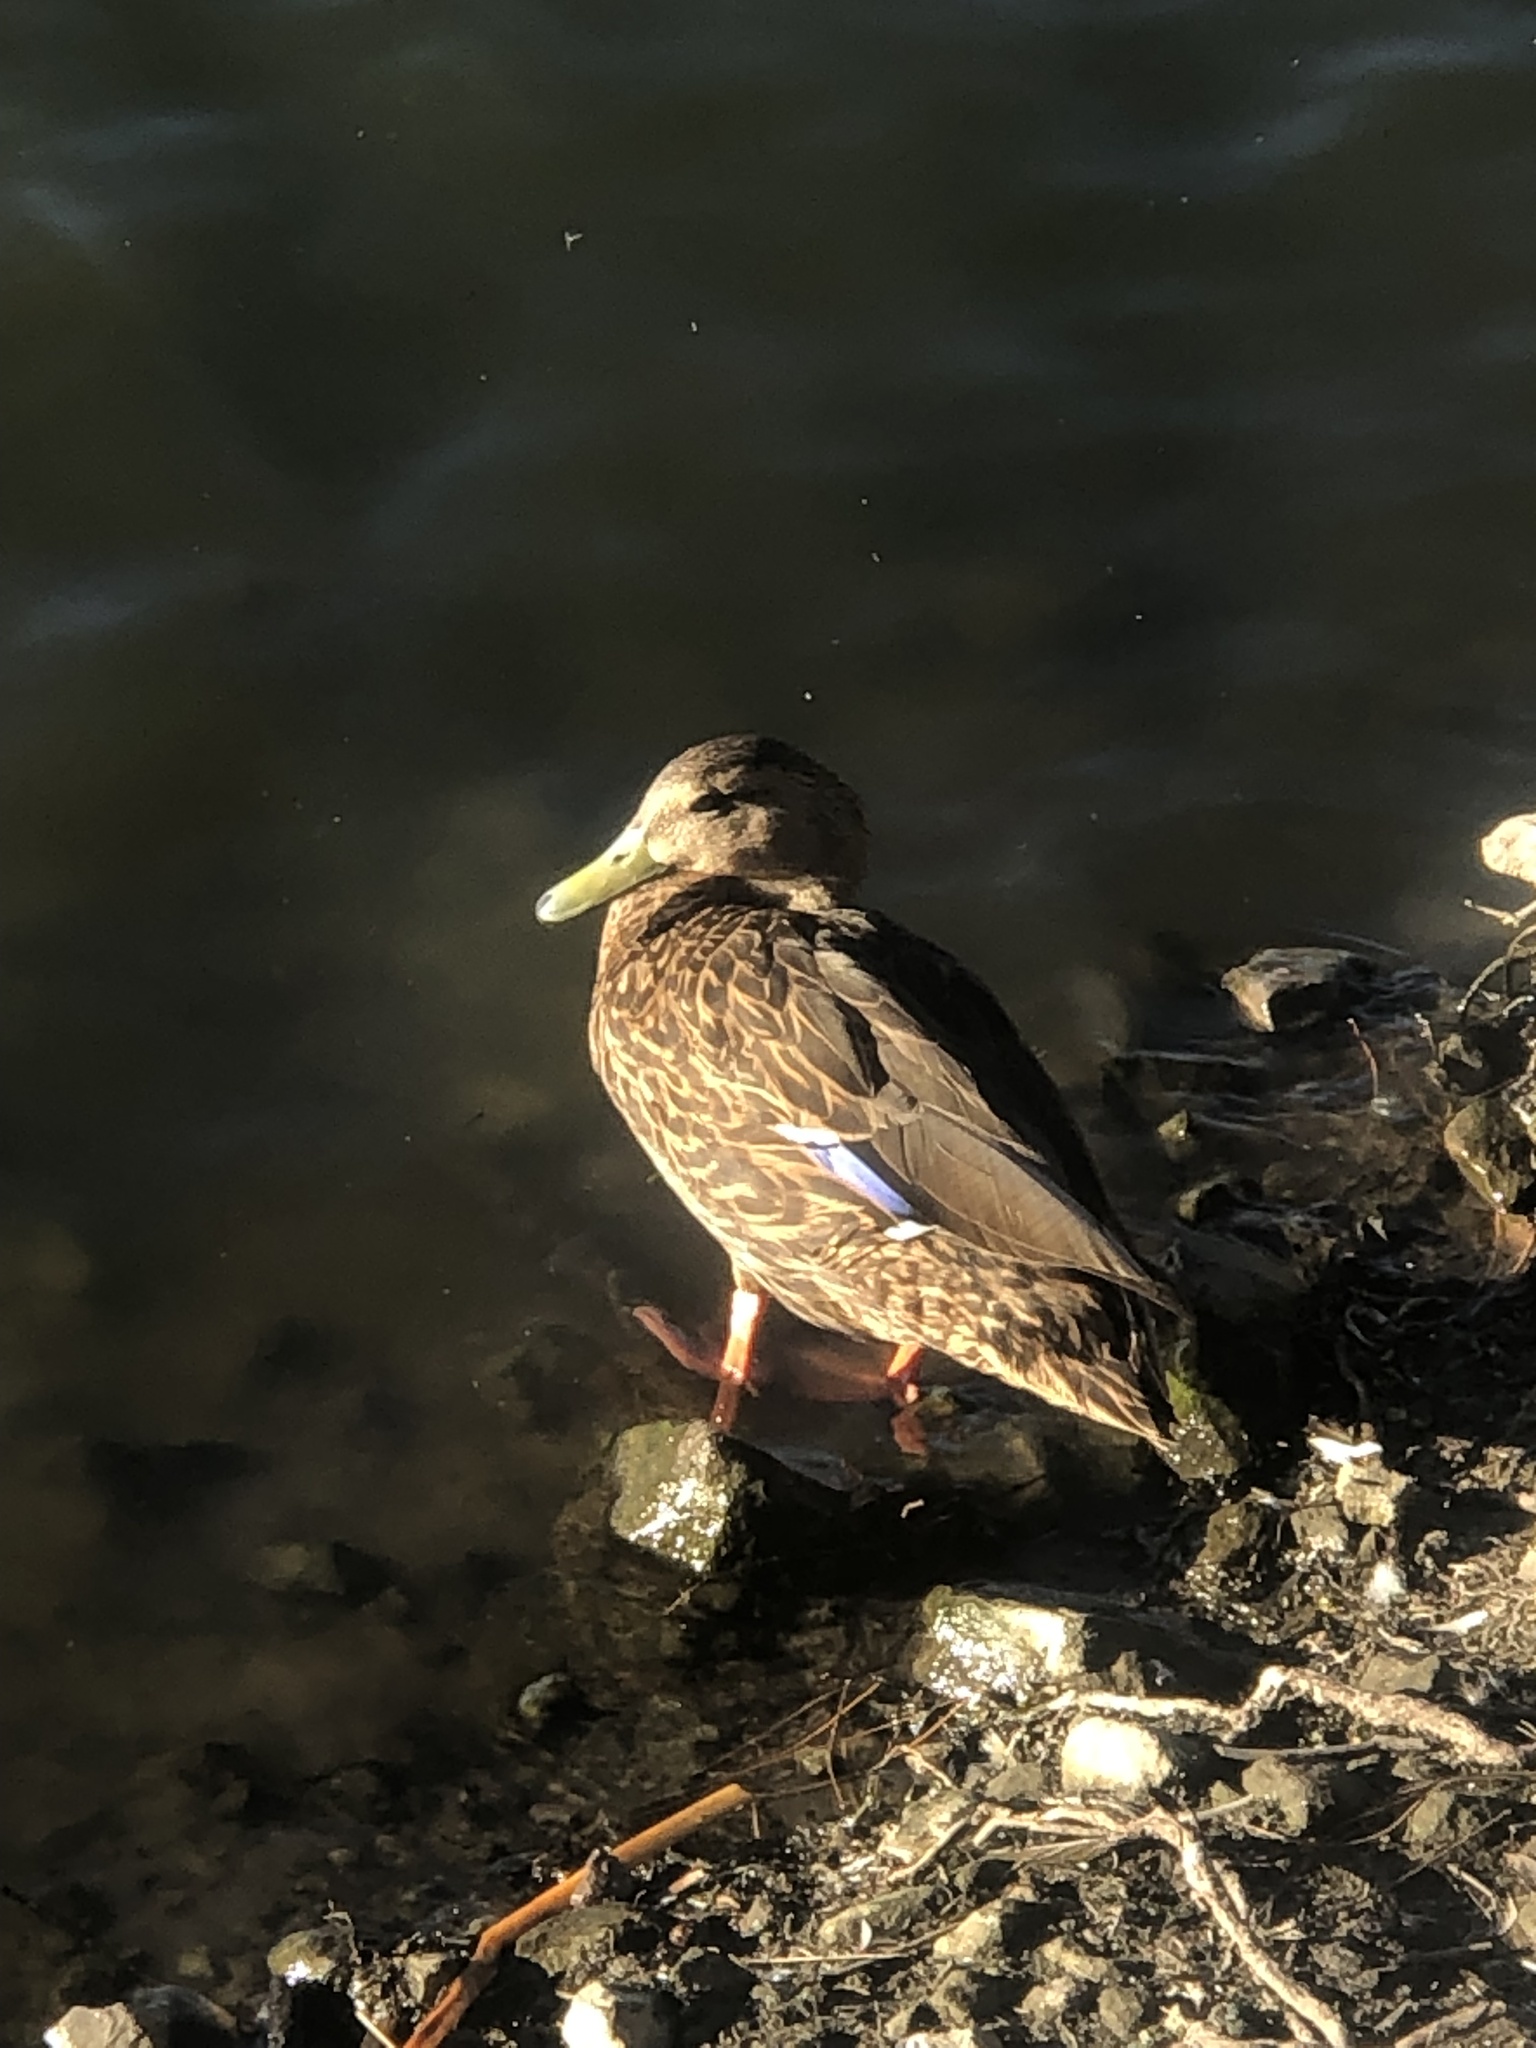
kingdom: Animalia
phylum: Chordata
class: Aves
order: Anseriformes
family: Anatidae
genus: Anas
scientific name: Anas diazi
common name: Mexican duck
